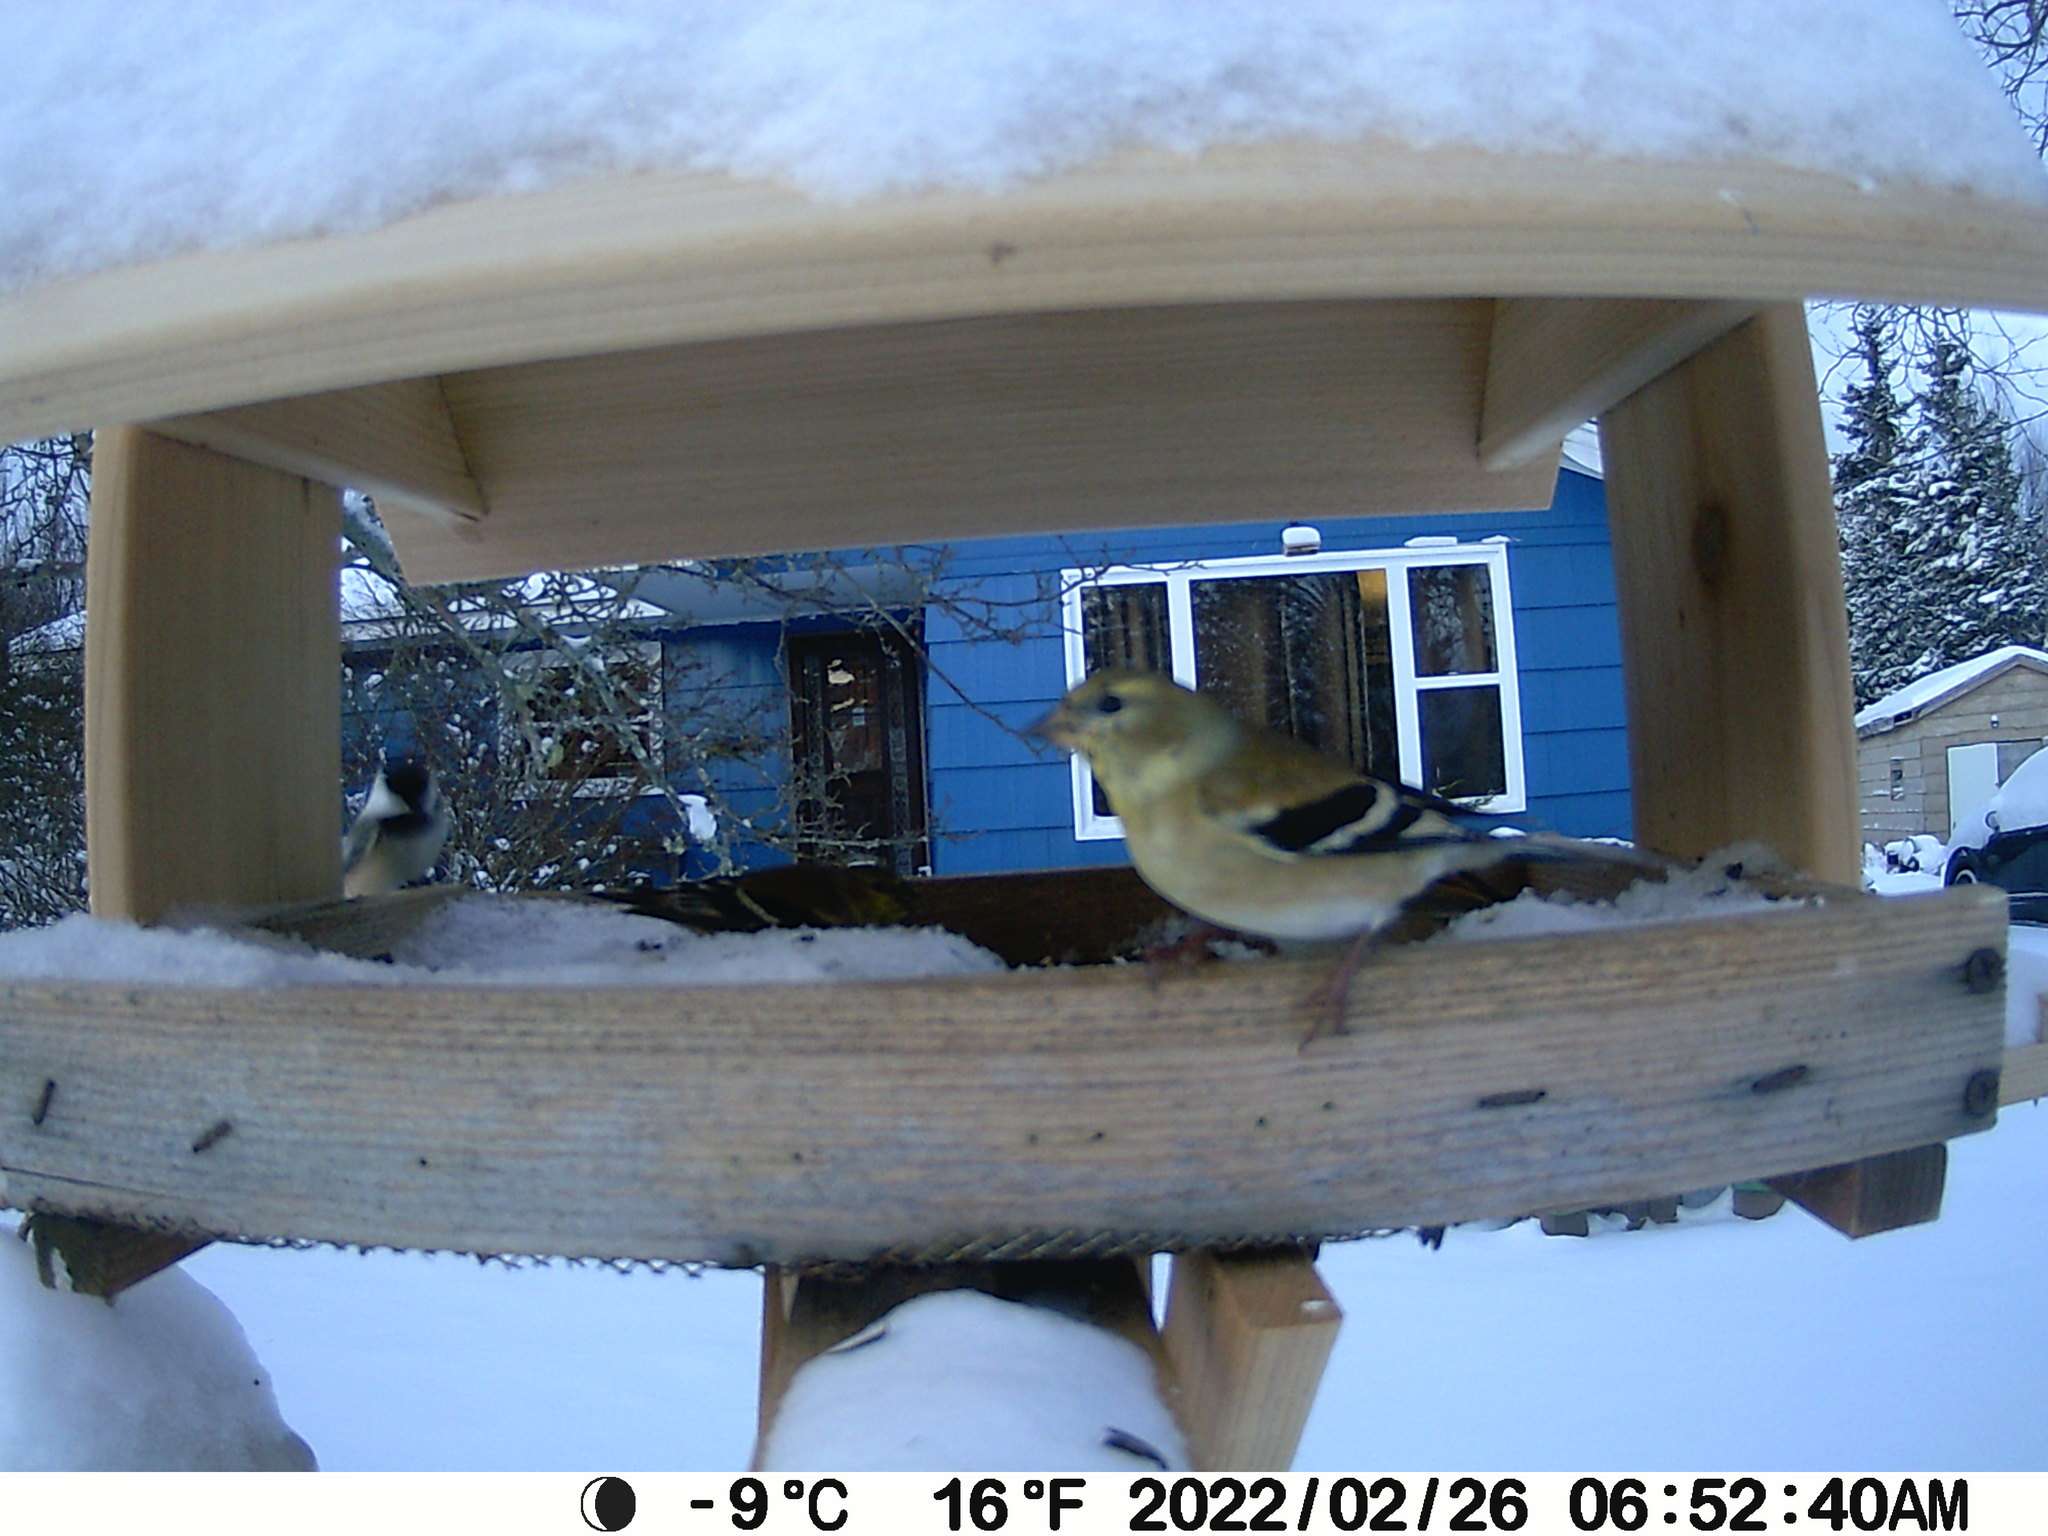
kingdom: Animalia
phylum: Chordata
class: Aves
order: Passeriformes
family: Fringillidae
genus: Spinus
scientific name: Spinus tristis
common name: American goldfinch
